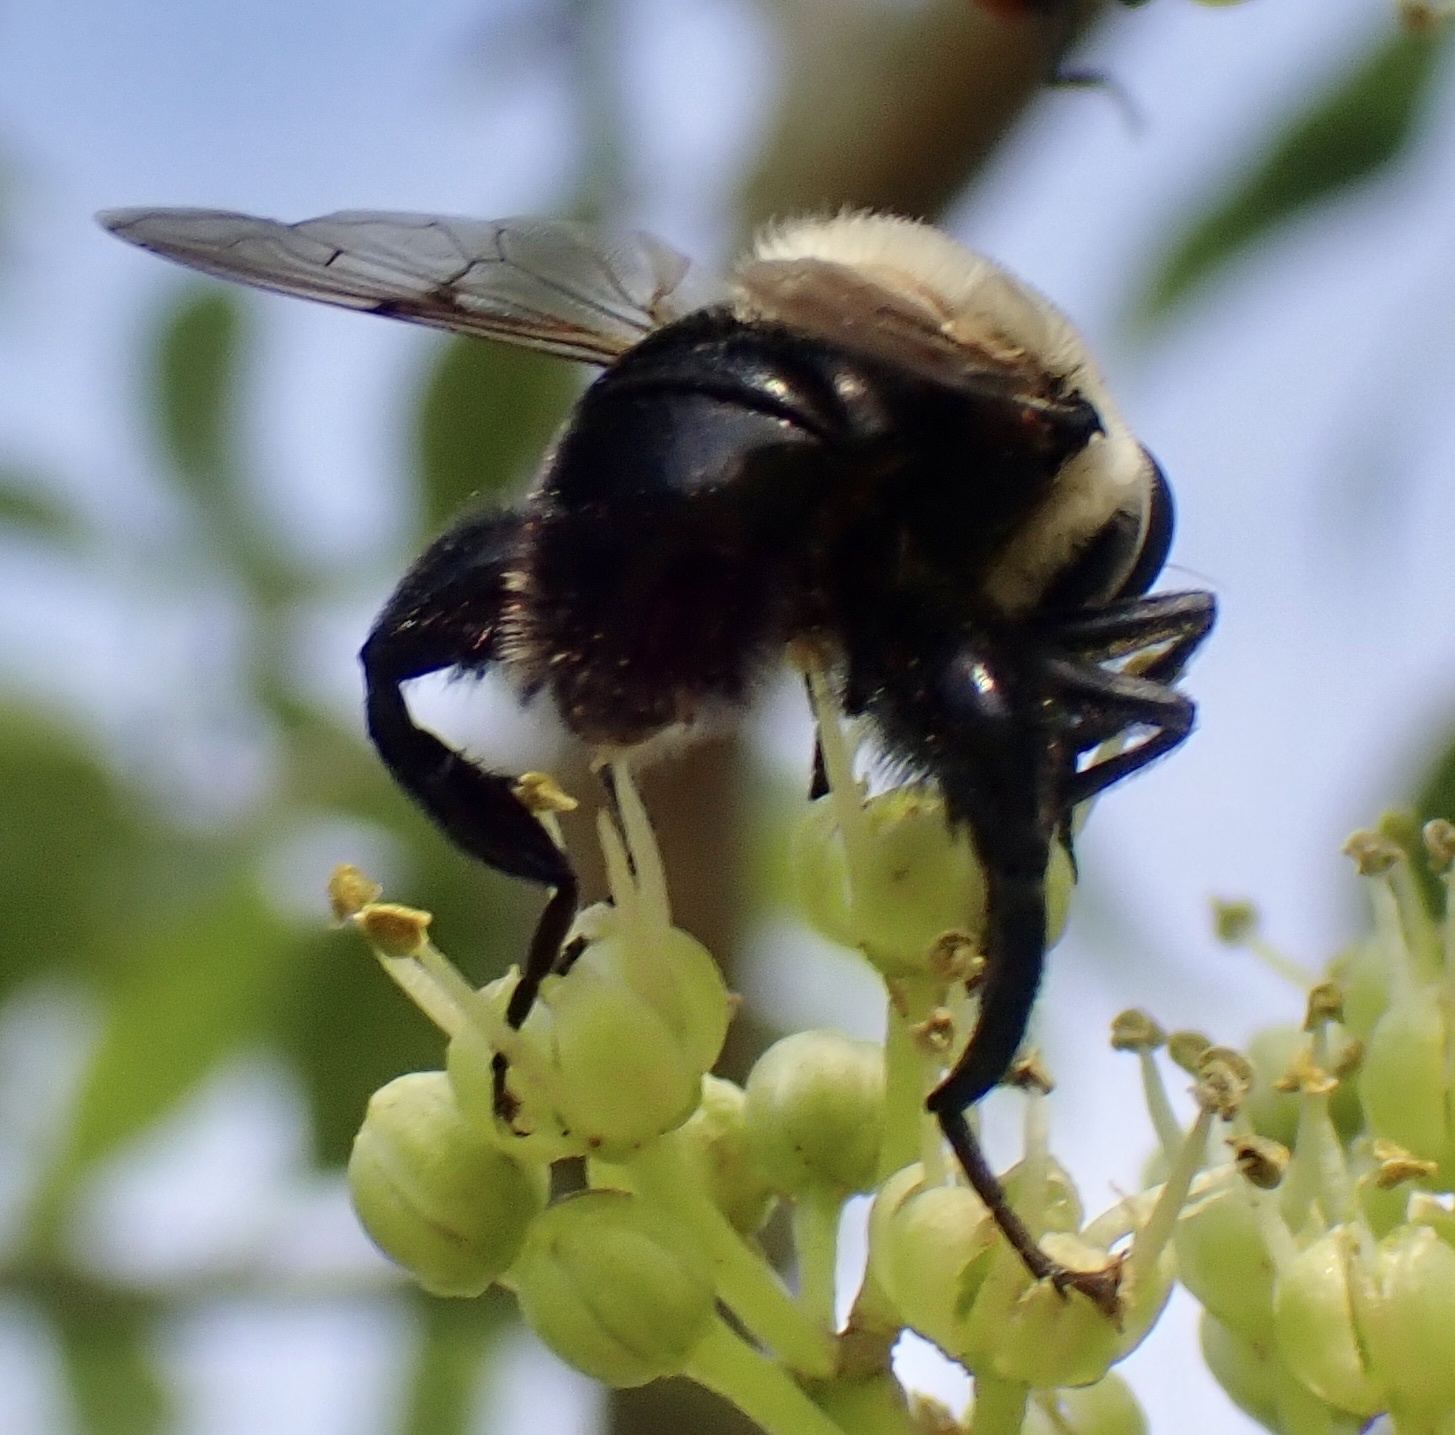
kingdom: Animalia
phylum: Arthropoda
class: Insecta
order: Diptera
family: Syrphidae
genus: Imatisma
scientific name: Imatisma bautias
